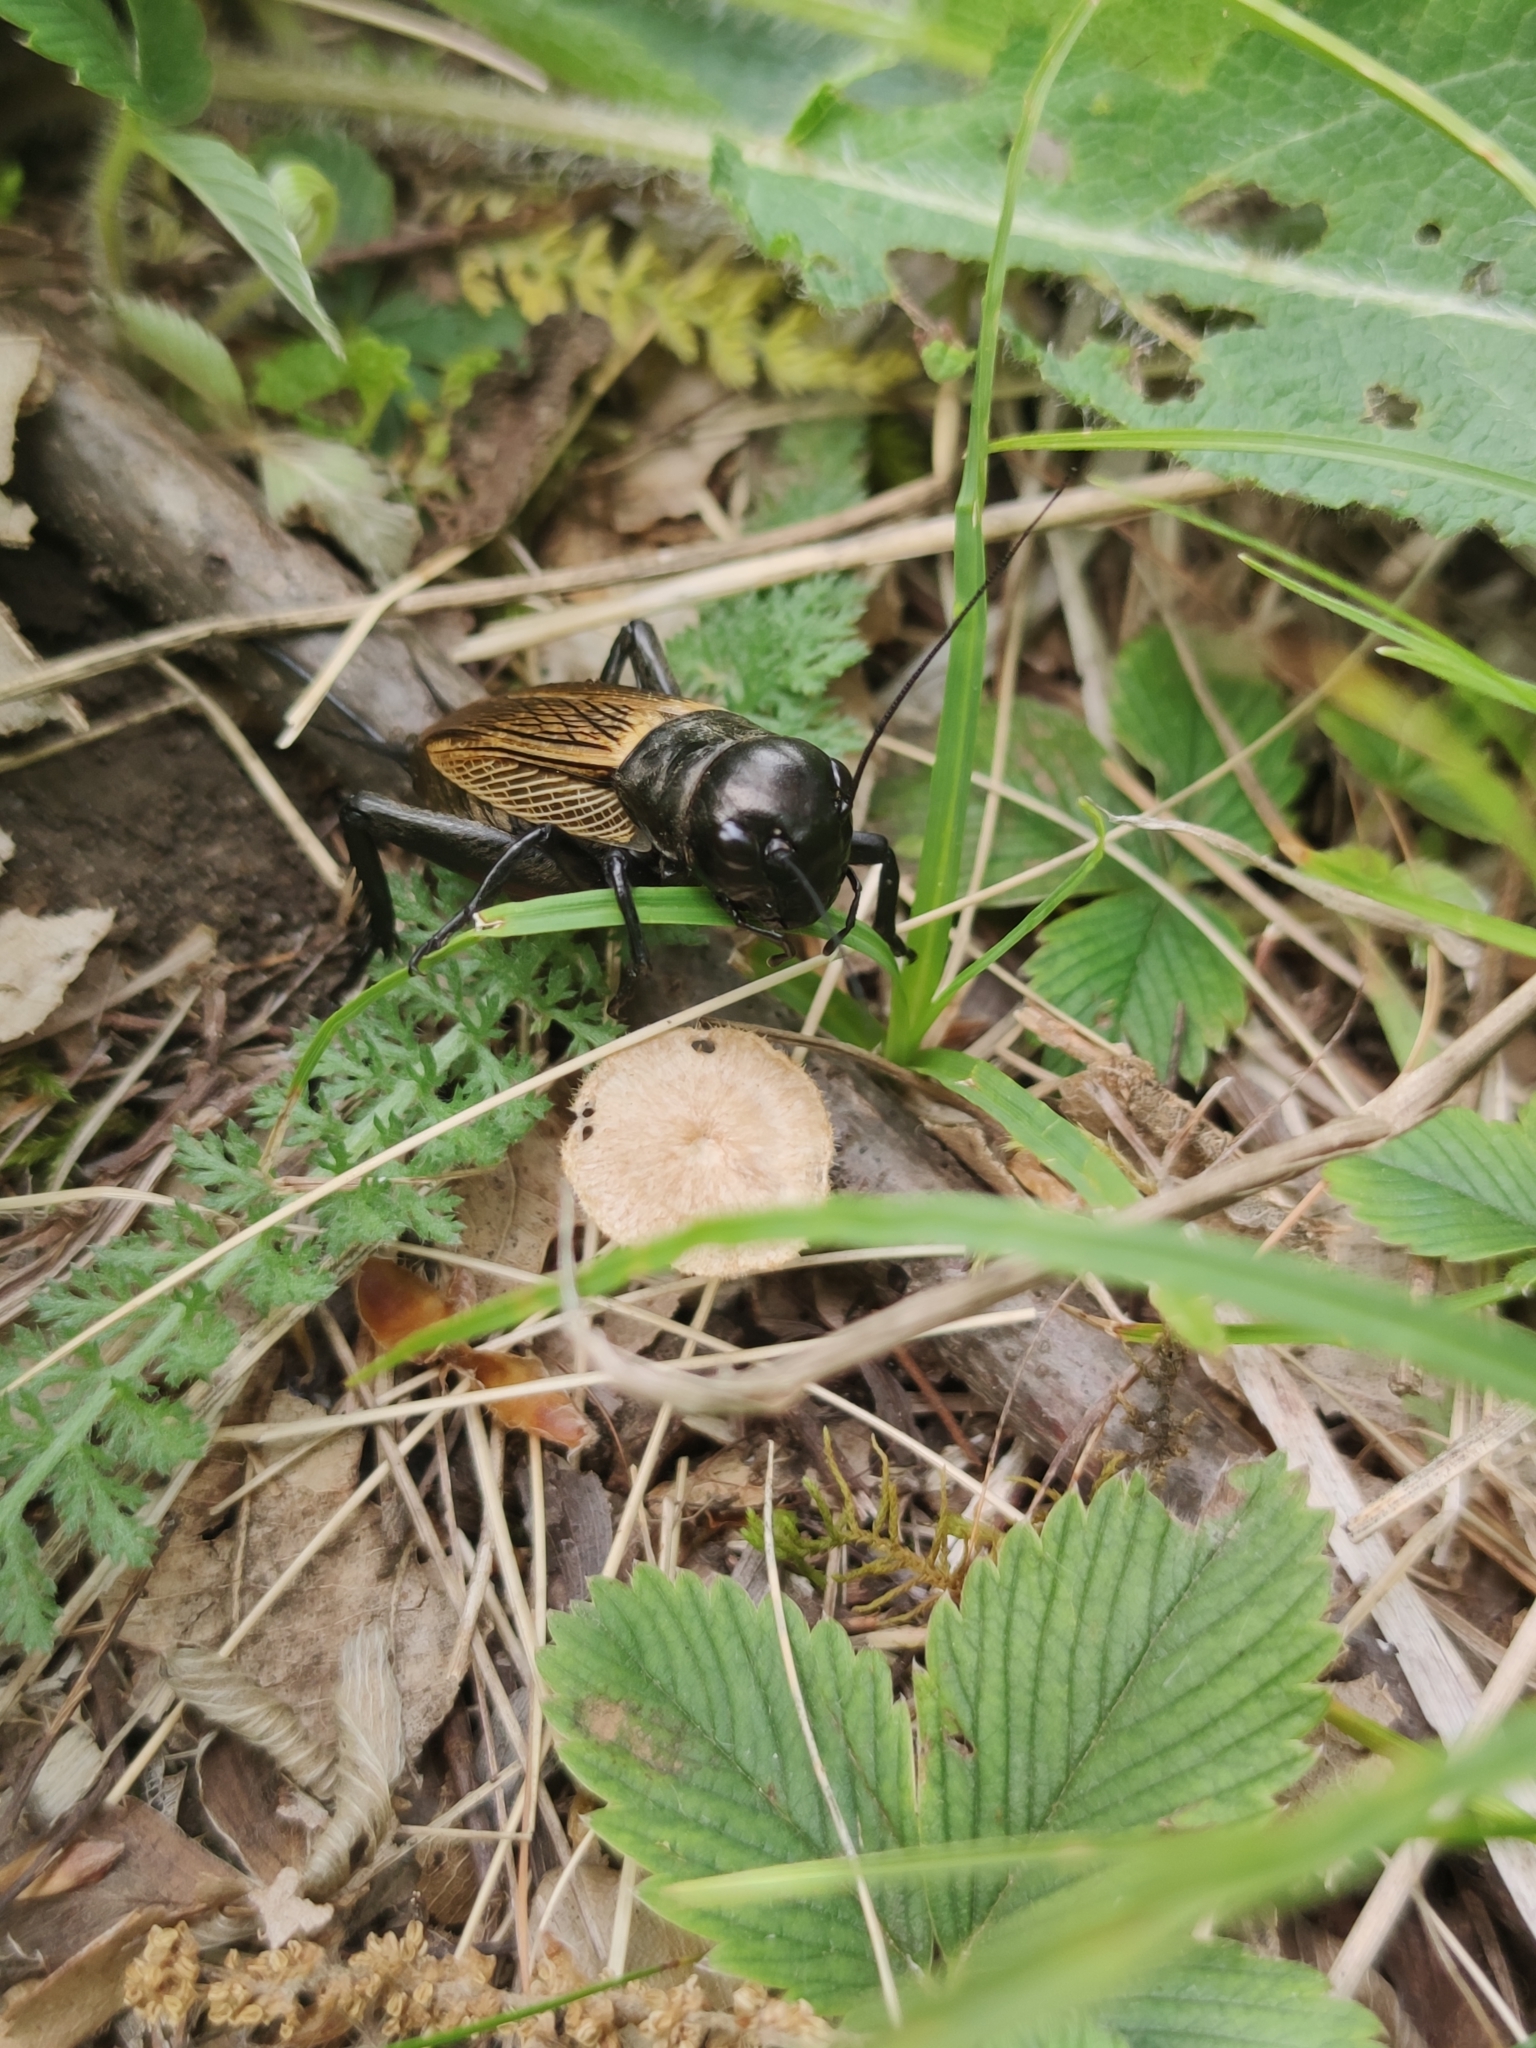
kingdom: Animalia
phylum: Arthropoda
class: Insecta
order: Orthoptera
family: Gryllidae
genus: Gryllus
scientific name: Gryllus campestris
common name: Field cricket
